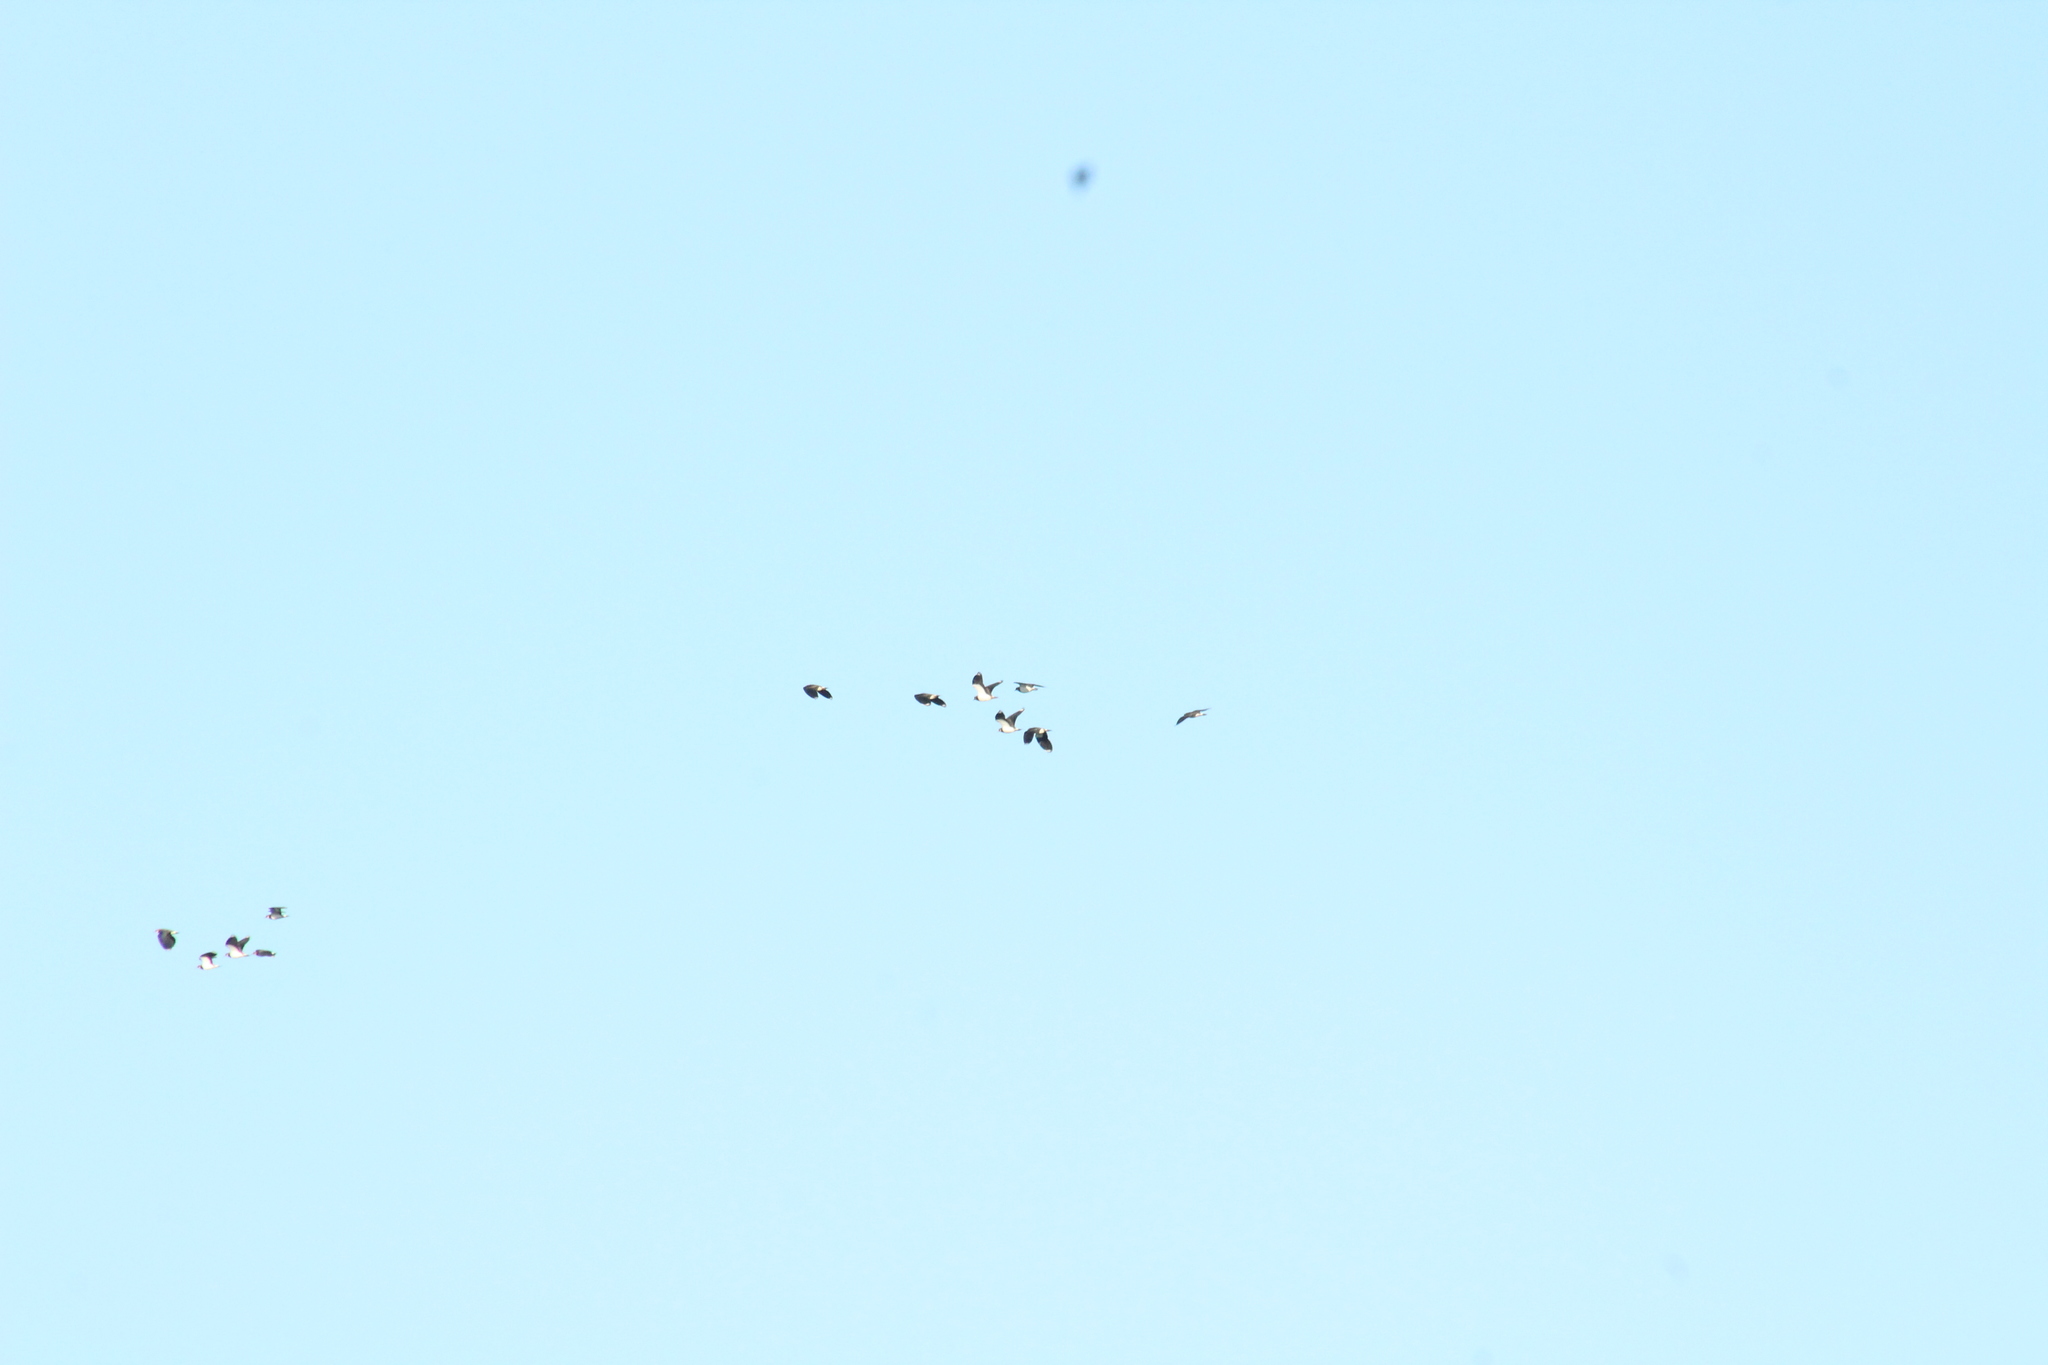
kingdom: Animalia
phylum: Chordata
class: Aves
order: Charadriiformes
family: Charadriidae
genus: Vanellus
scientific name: Vanellus vanellus
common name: Northern lapwing
